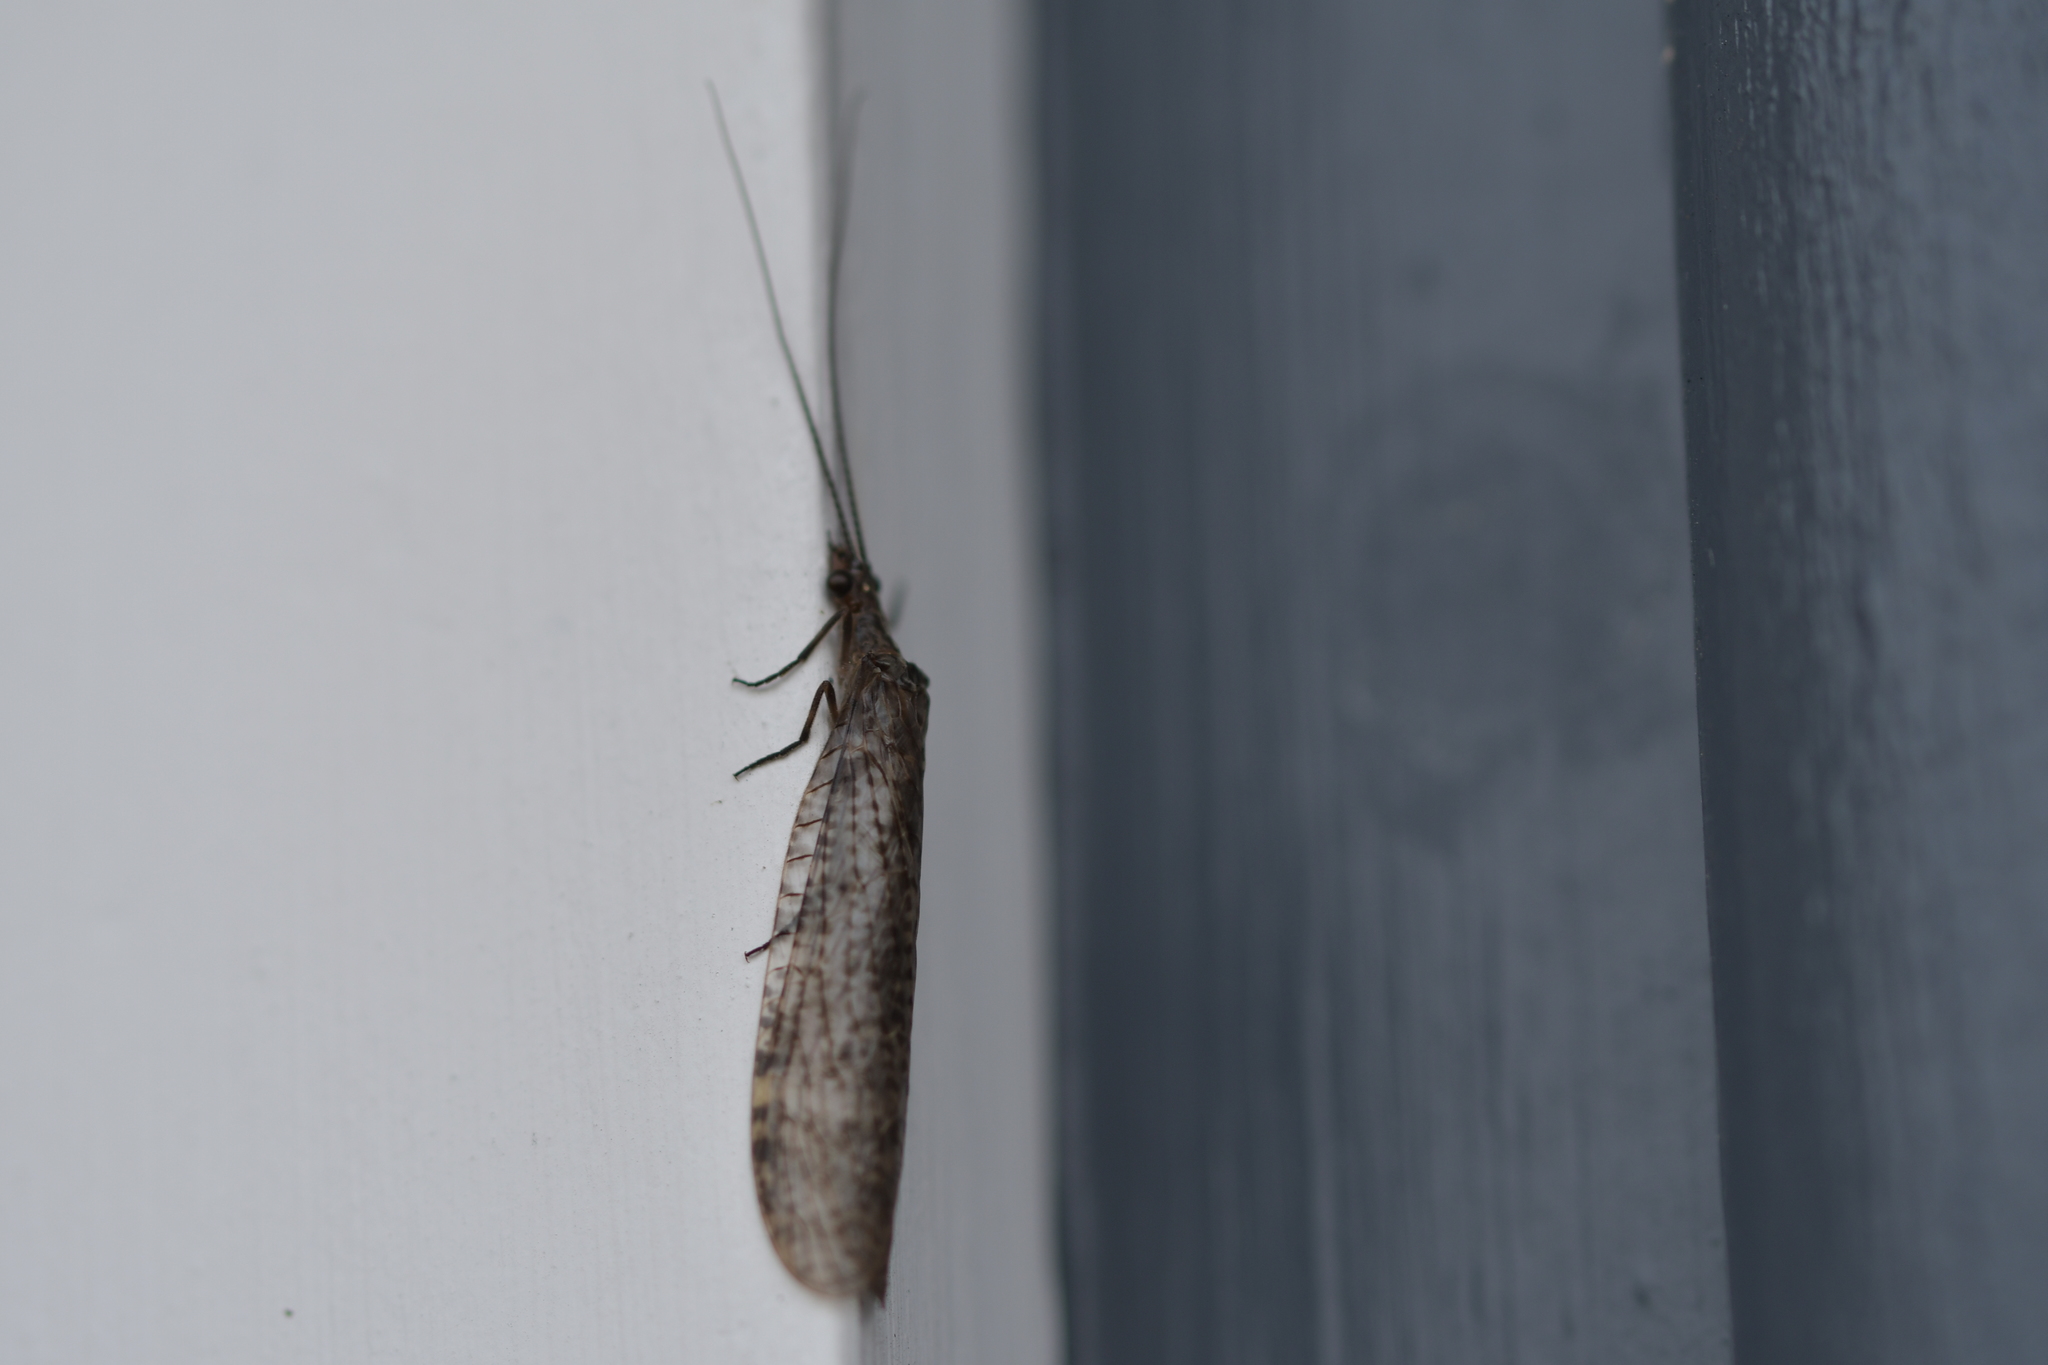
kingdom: Animalia
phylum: Arthropoda
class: Insecta
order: Megaloptera
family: Corydalidae
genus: Archichauliodes
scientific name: Archichauliodes diversus
